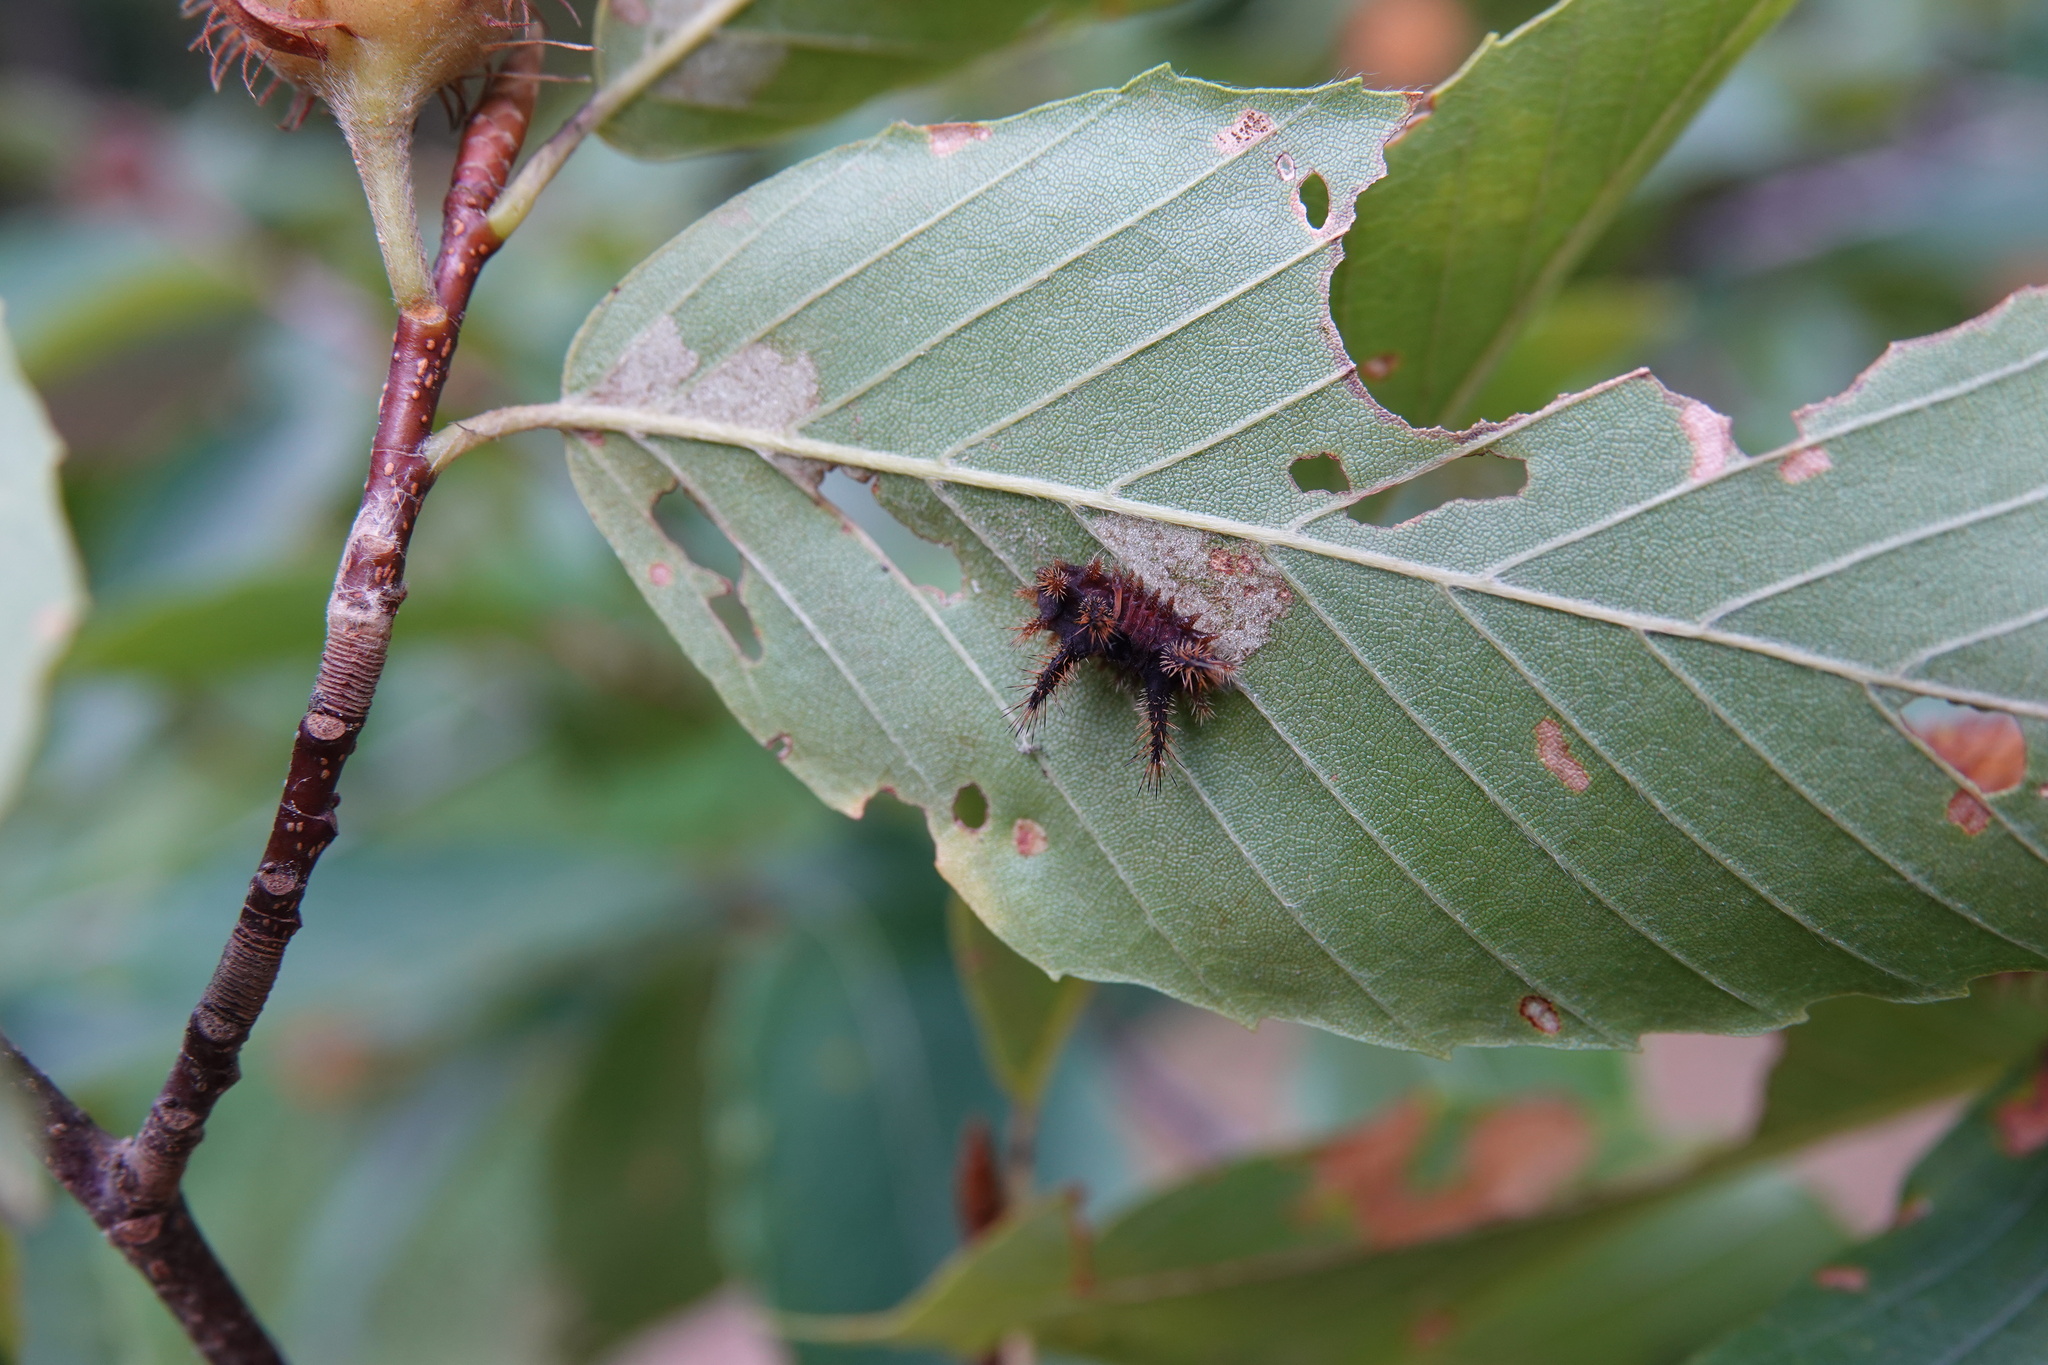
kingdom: Animalia
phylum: Arthropoda
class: Insecta
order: Lepidoptera
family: Limacodidae
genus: Acharia
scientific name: Acharia stimulea
